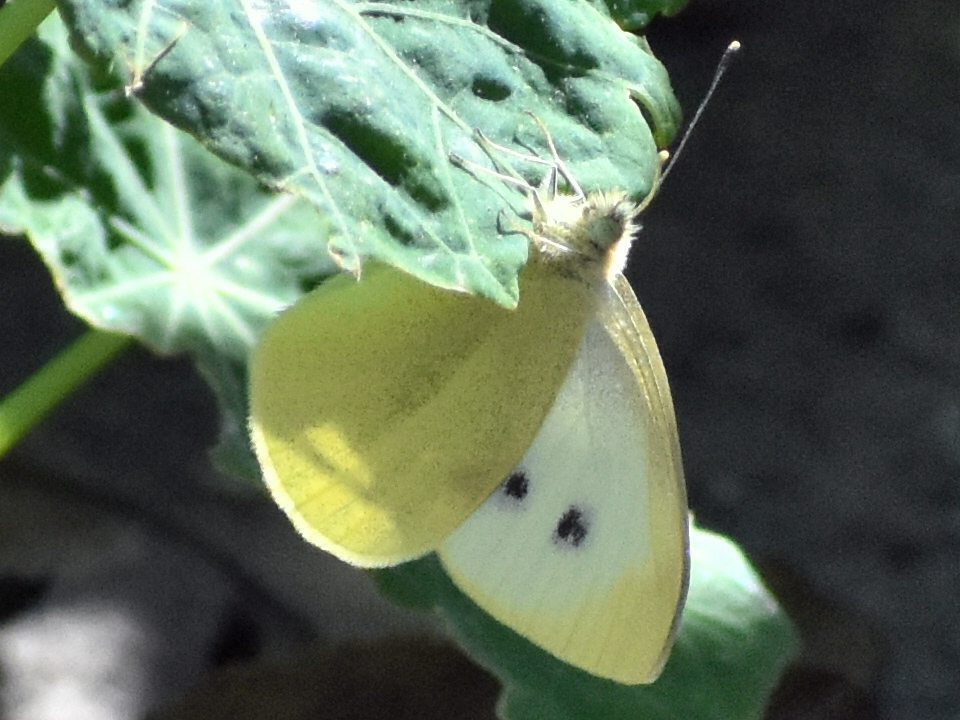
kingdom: Animalia
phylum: Arthropoda
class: Insecta
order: Lepidoptera
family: Pieridae
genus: Pieris
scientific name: Pieris rapae
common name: Small white
